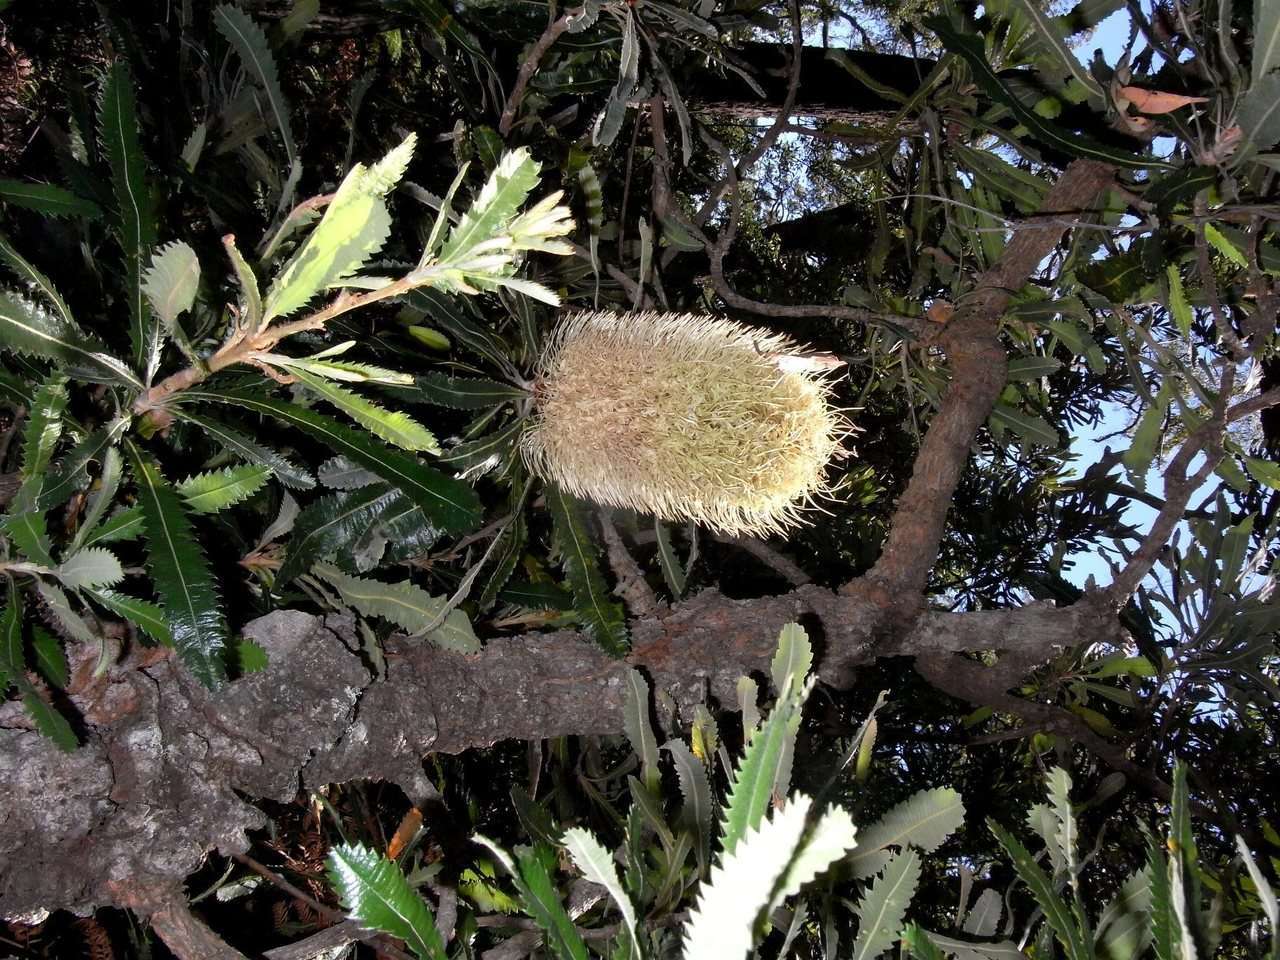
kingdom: Plantae
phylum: Tracheophyta
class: Magnoliopsida
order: Proteales
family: Proteaceae
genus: Banksia
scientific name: Banksia serrata
